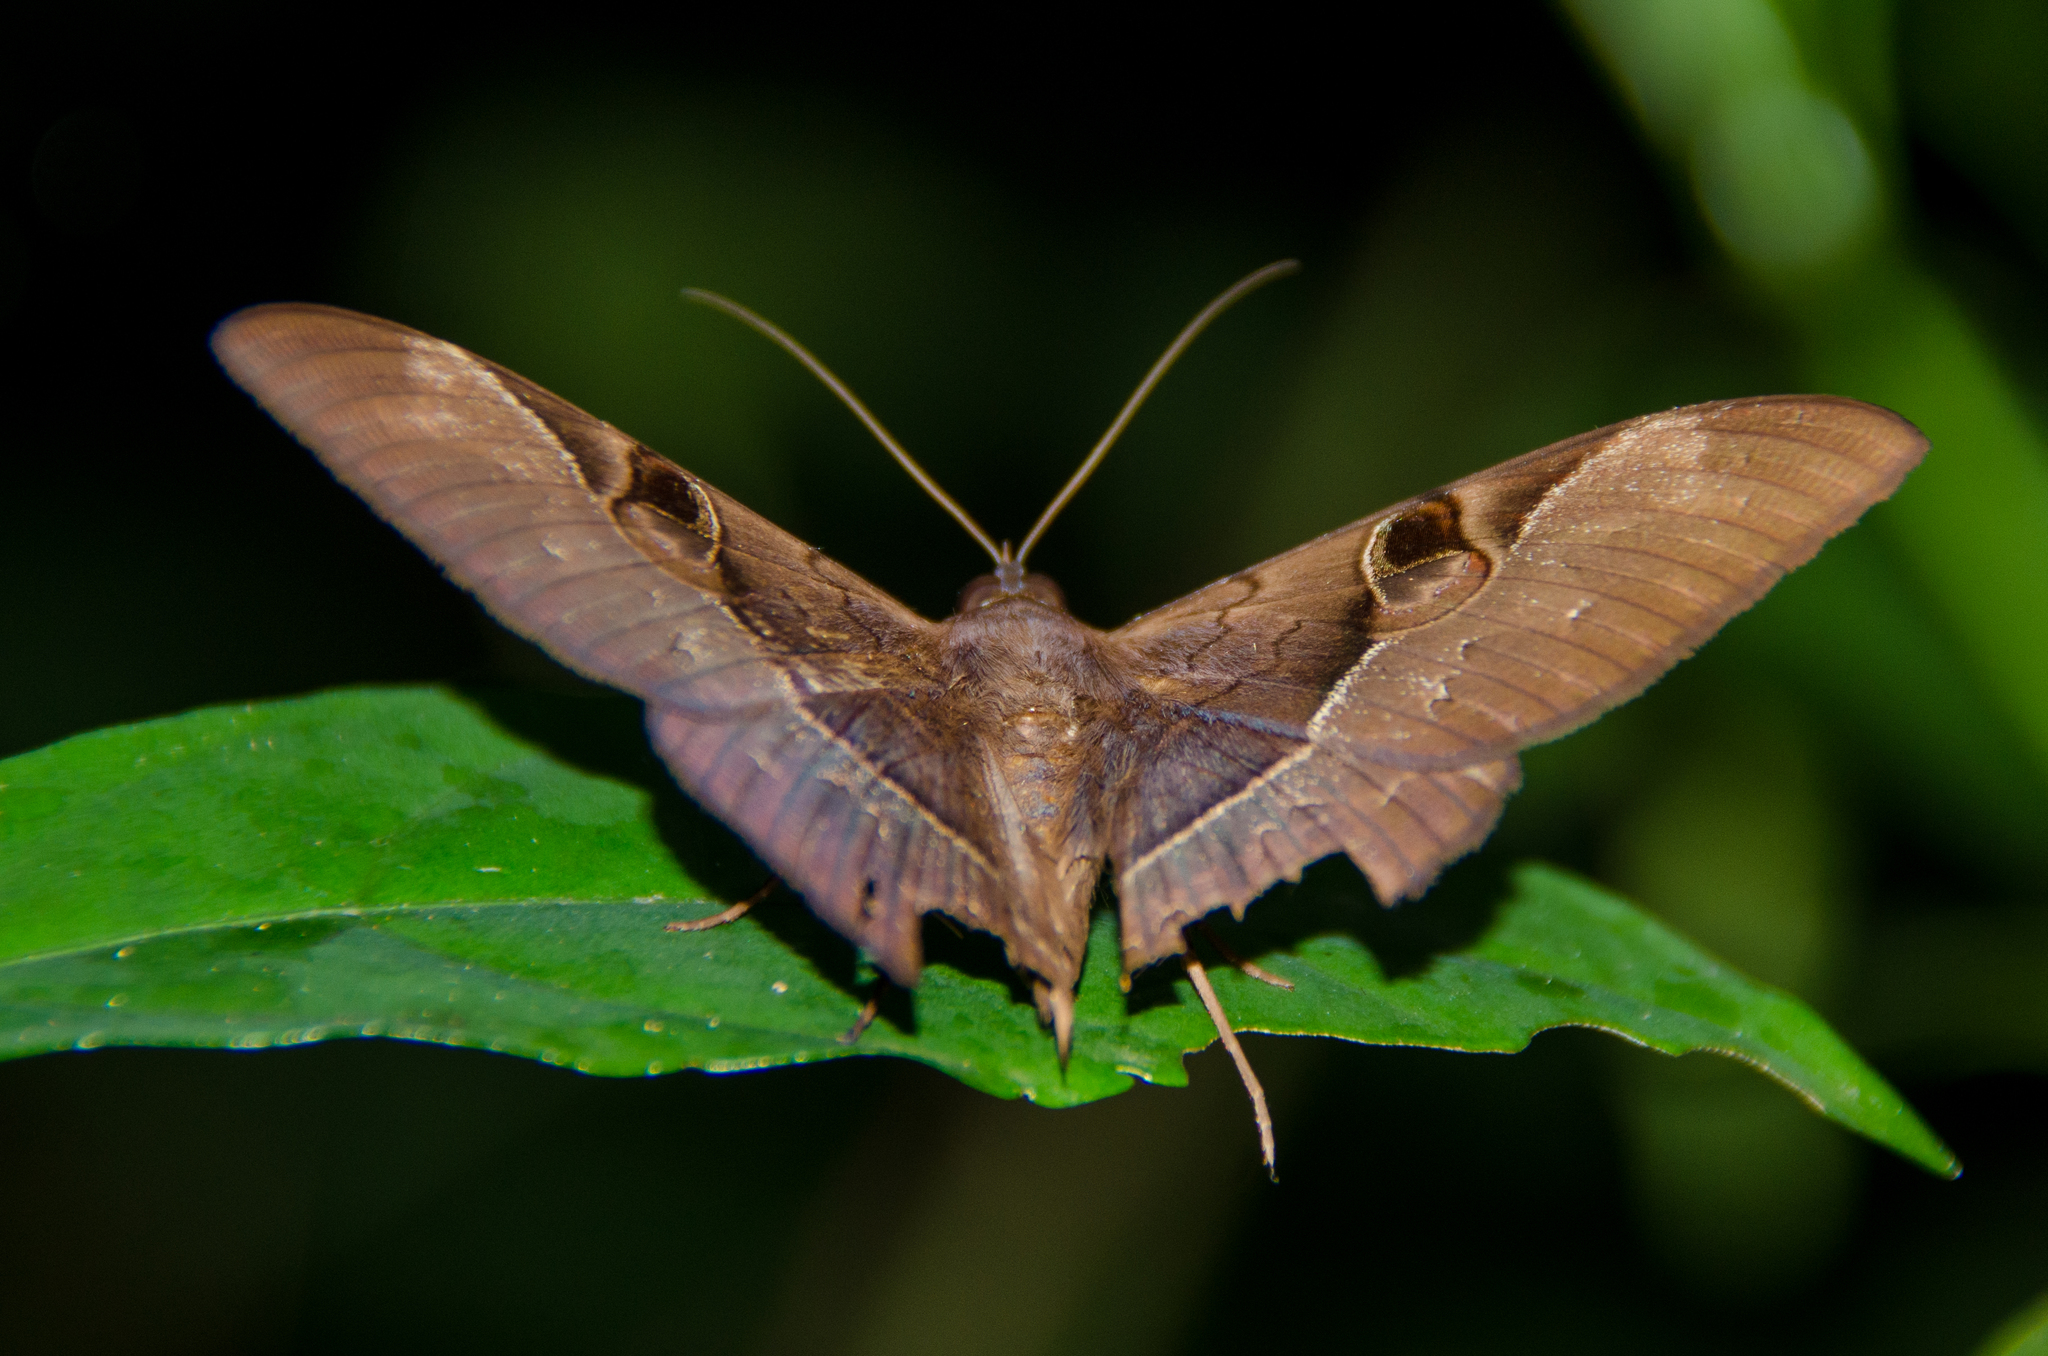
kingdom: Animalia
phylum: Arthropoda
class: Insecta
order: Lepidoptera
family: Erebidae
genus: Cyligramma
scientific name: Cyligramma fluctuosa
